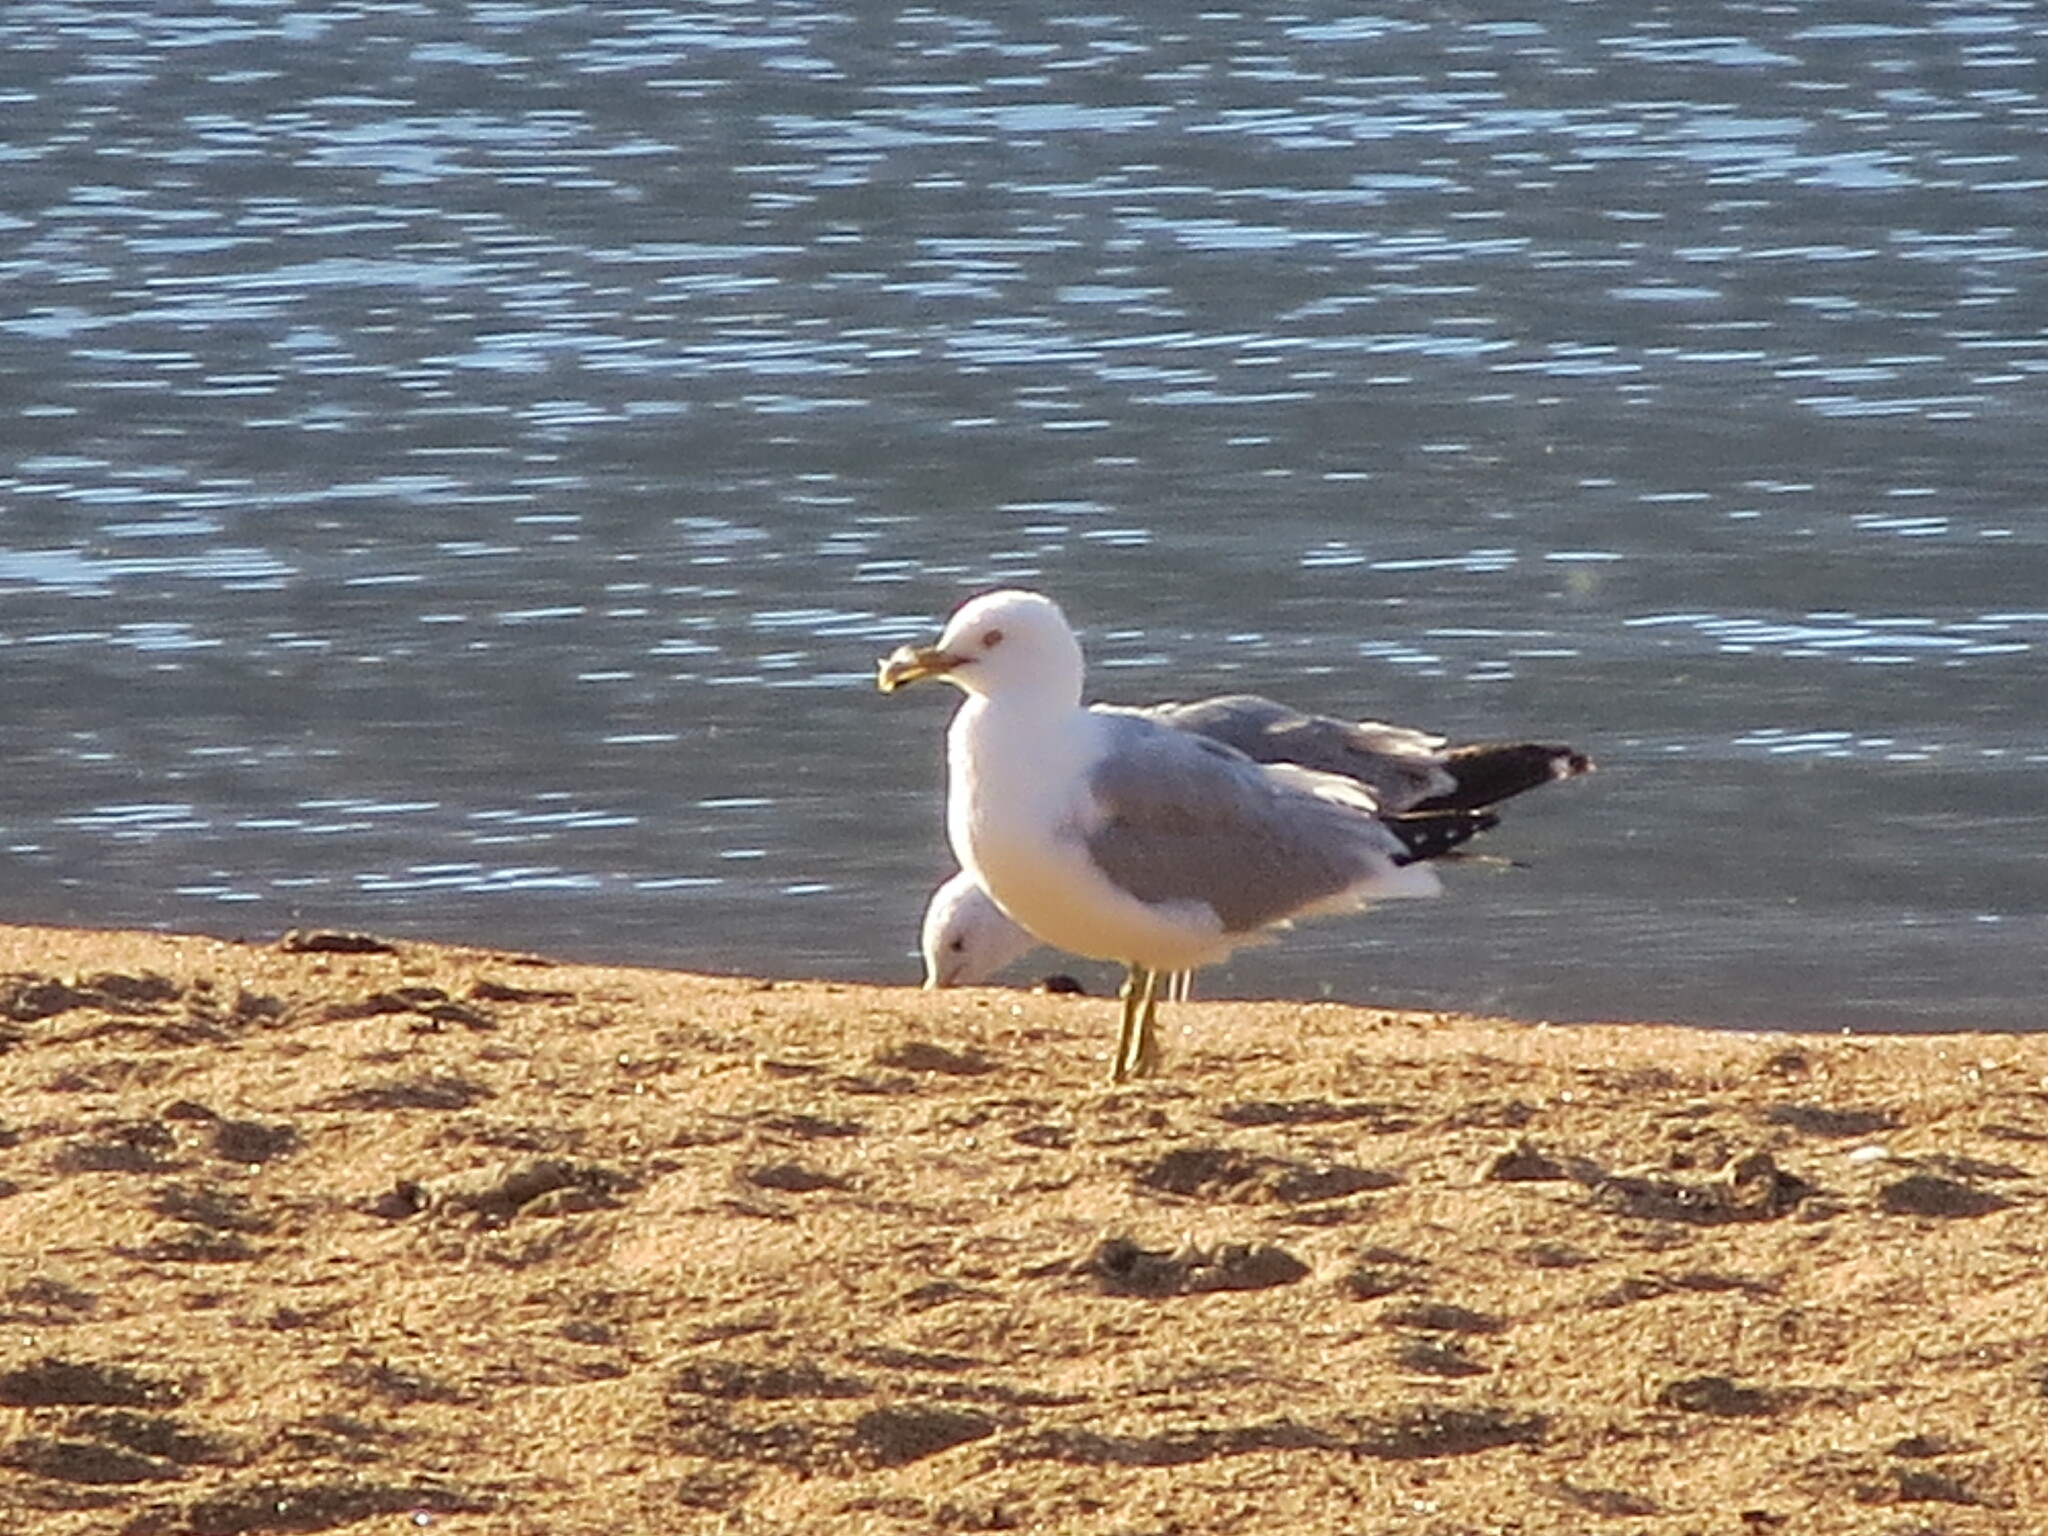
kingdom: Animalia
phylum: Chordata
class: Aves
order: Charadriiformes
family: Laridae
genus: Larus
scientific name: Larus delawarensis
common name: Ring-billed gull
